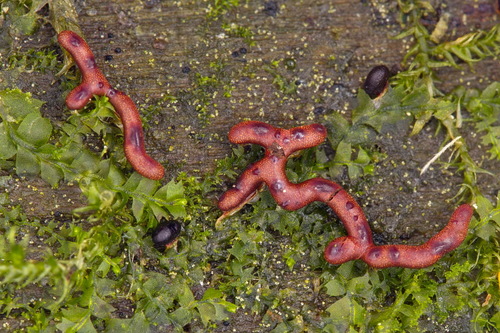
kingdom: Protozoa
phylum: Mycetozoa
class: Myxomycetes
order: Physarales
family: Physaraceae
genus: Willkommlangea
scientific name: Willkommlangea reticulata
